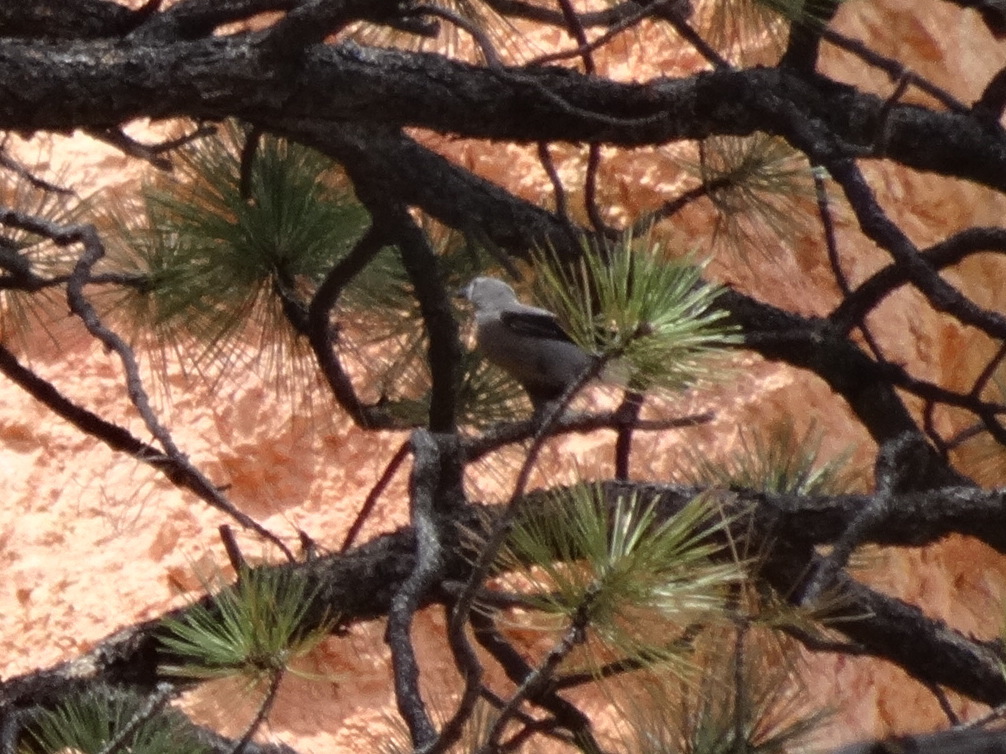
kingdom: Animalia
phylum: Chordata
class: Aves
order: Passeriformes
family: Corvidae
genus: Nucifraga
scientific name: Nucifraga columbiana
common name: Clark's nutcracker
